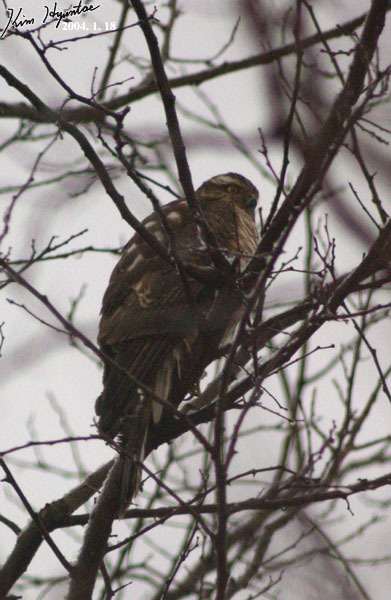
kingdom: Animalia
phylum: Chordata
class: Aves
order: Accipitriformes
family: Accipitridae
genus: Accipiter
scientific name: Accipiter nisus
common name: Eurasian sparrowhawk
